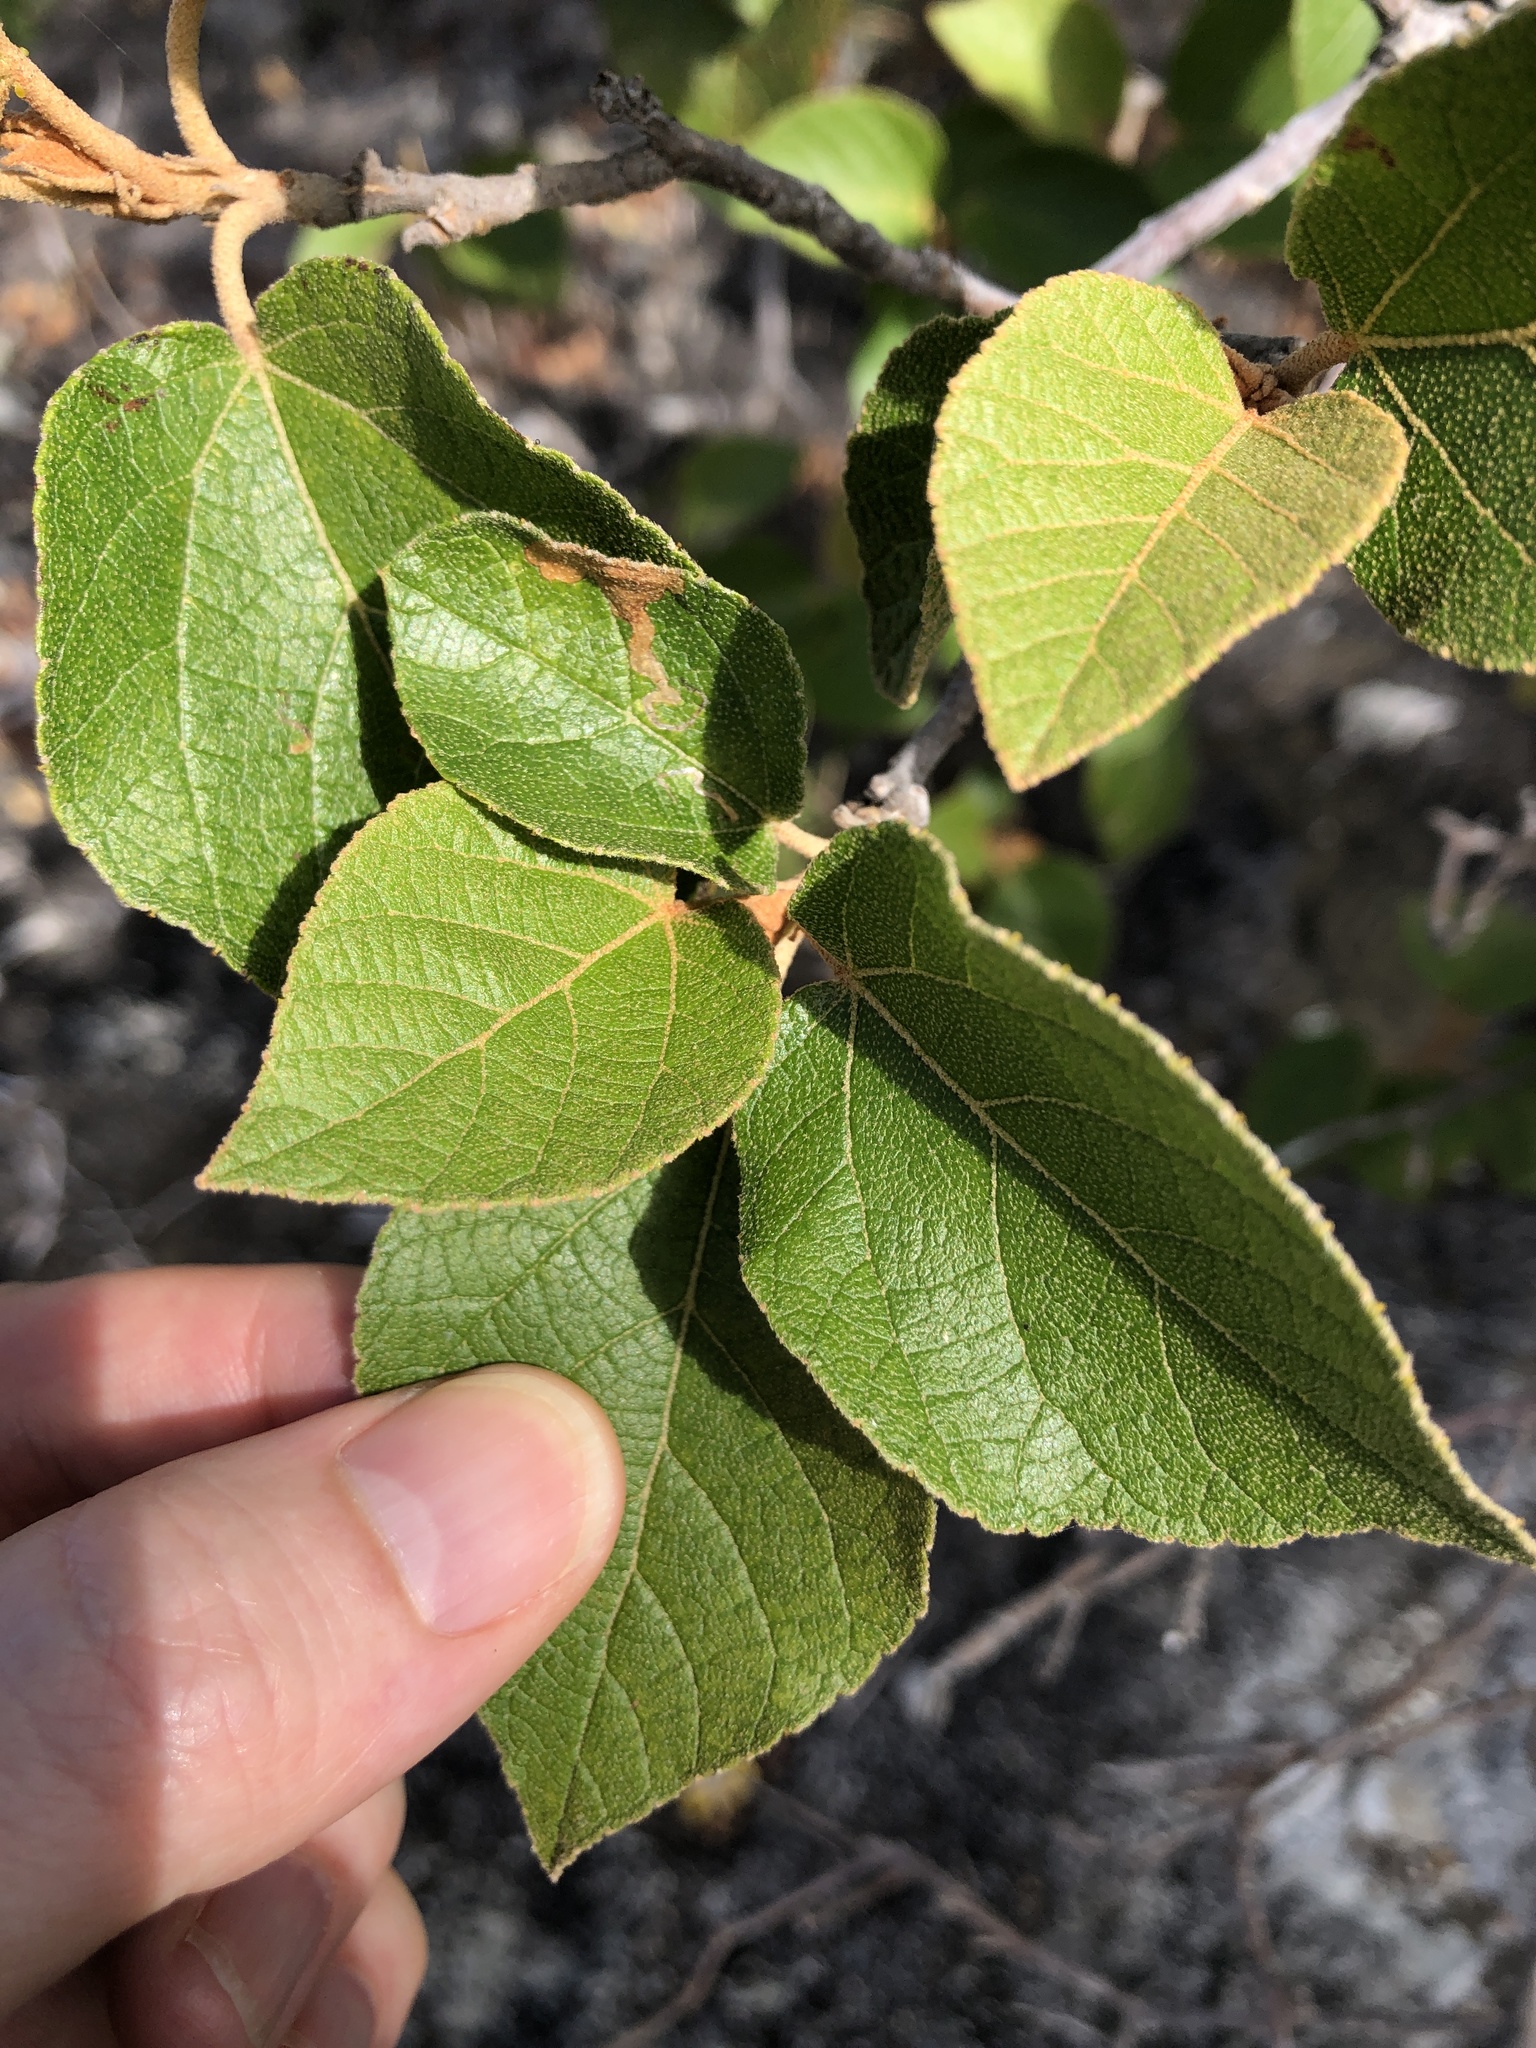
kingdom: Plantae
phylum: Tracheophyta
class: Magnoliopsida
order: Malpighiales
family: Euphorbiaceae
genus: Croton
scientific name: Croton arnhemicus
